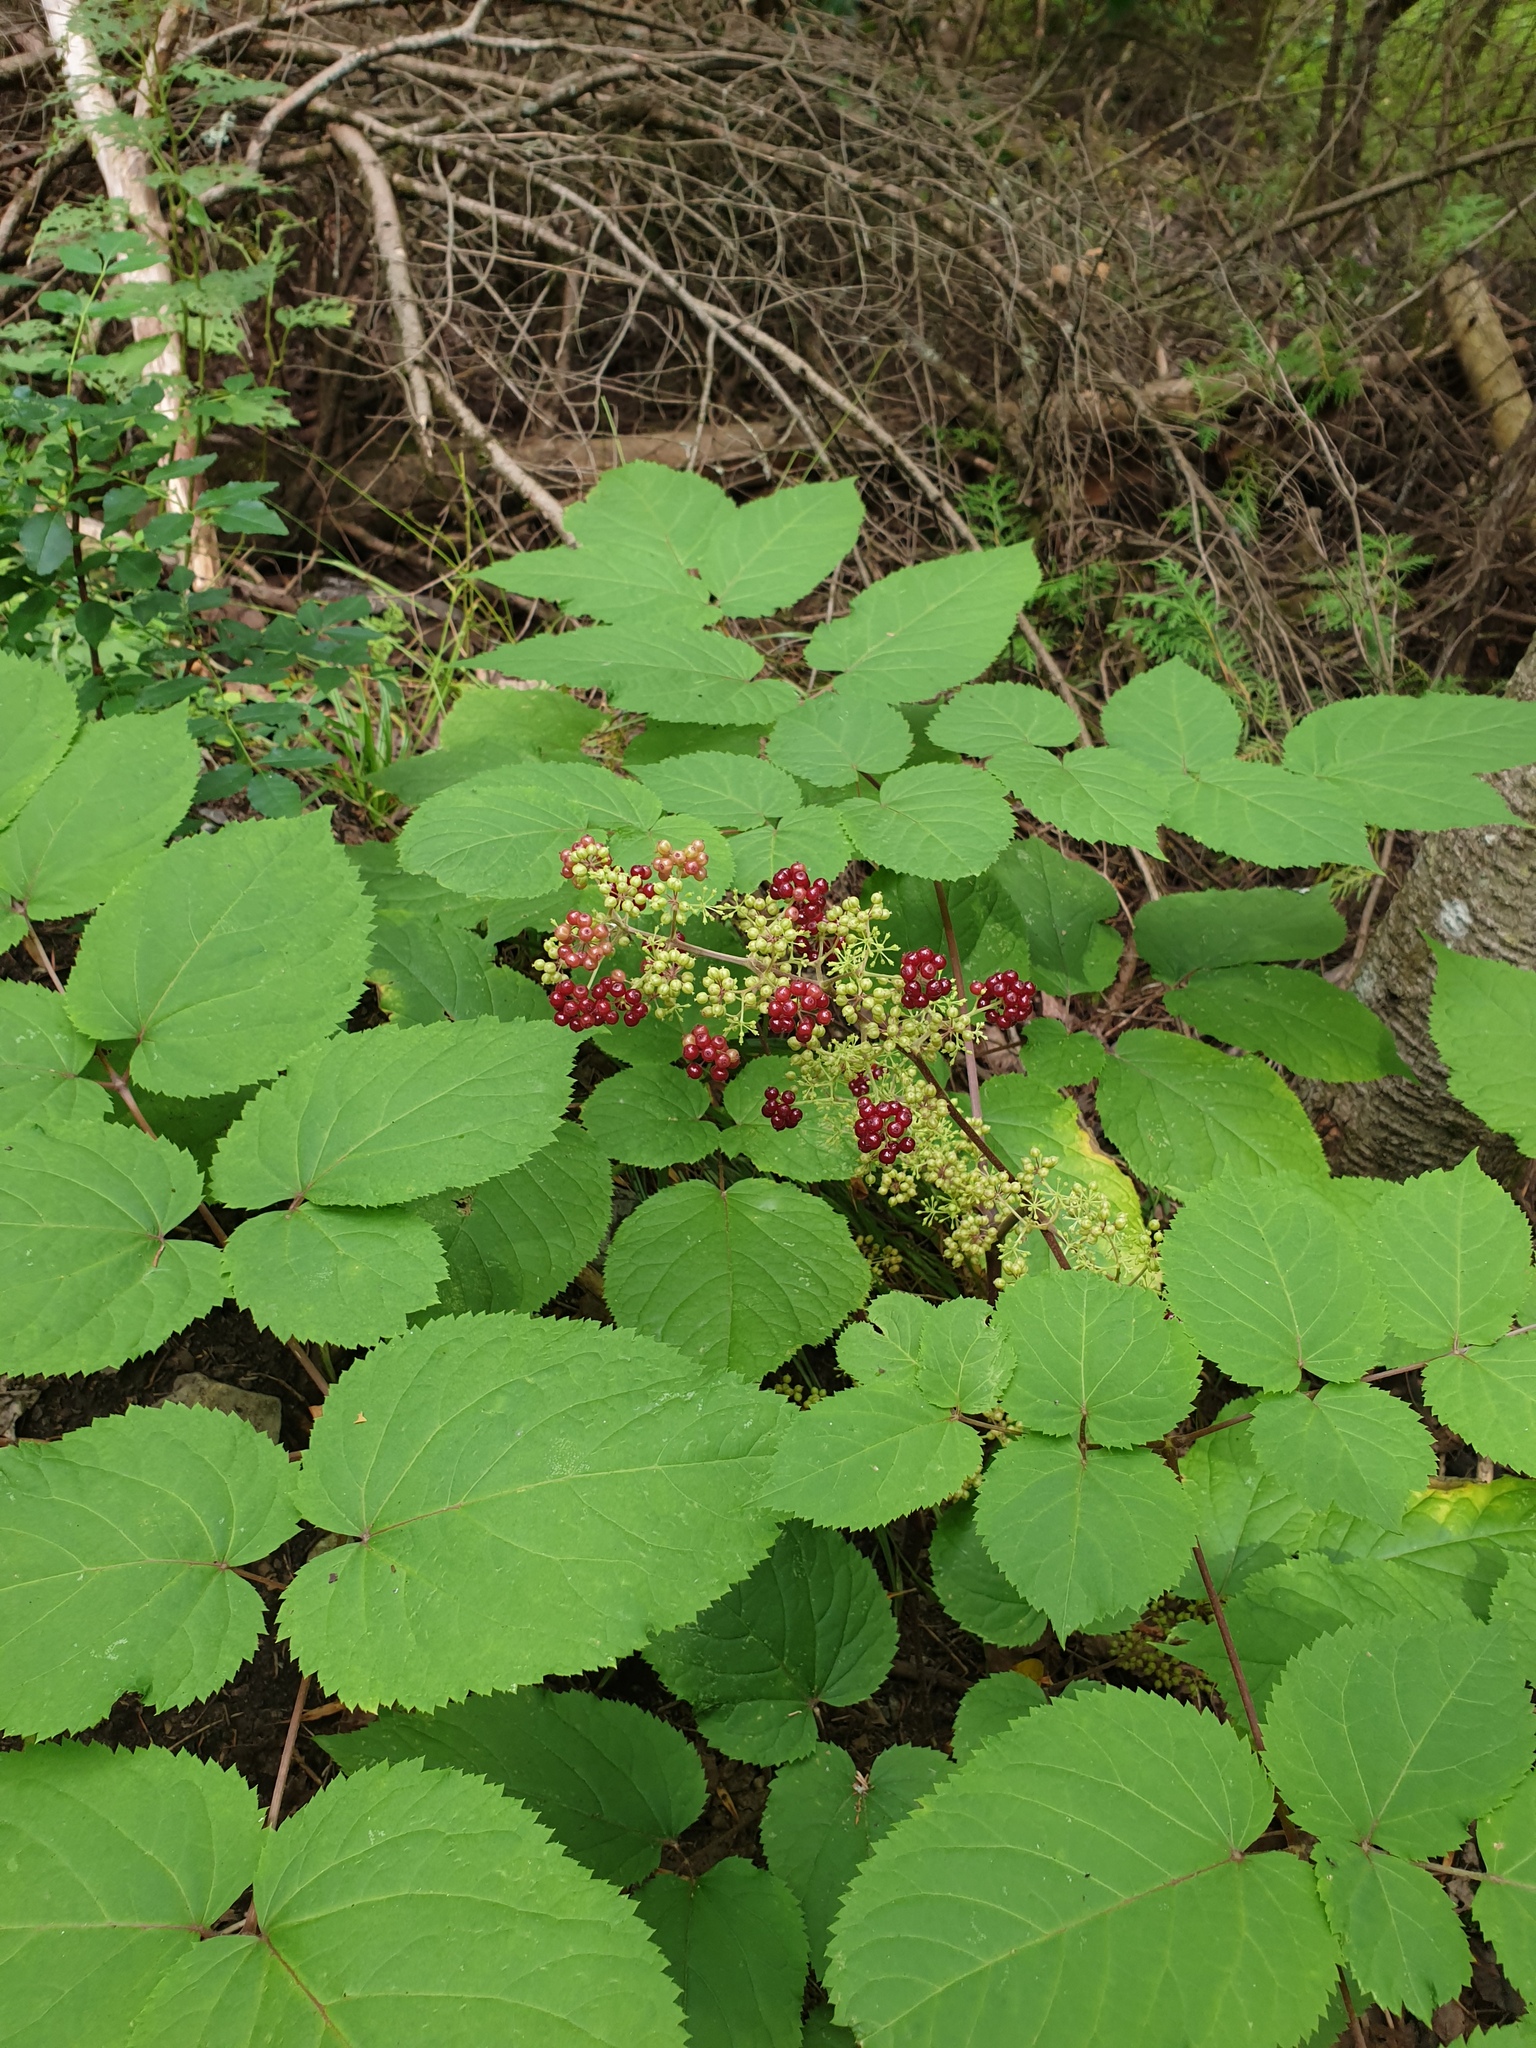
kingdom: Plantae
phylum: Tracheophyta
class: Magnoliopsida
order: Apiales
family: Araliaceae
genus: Aralia
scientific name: Aralia racemosa
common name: American-spikenard
